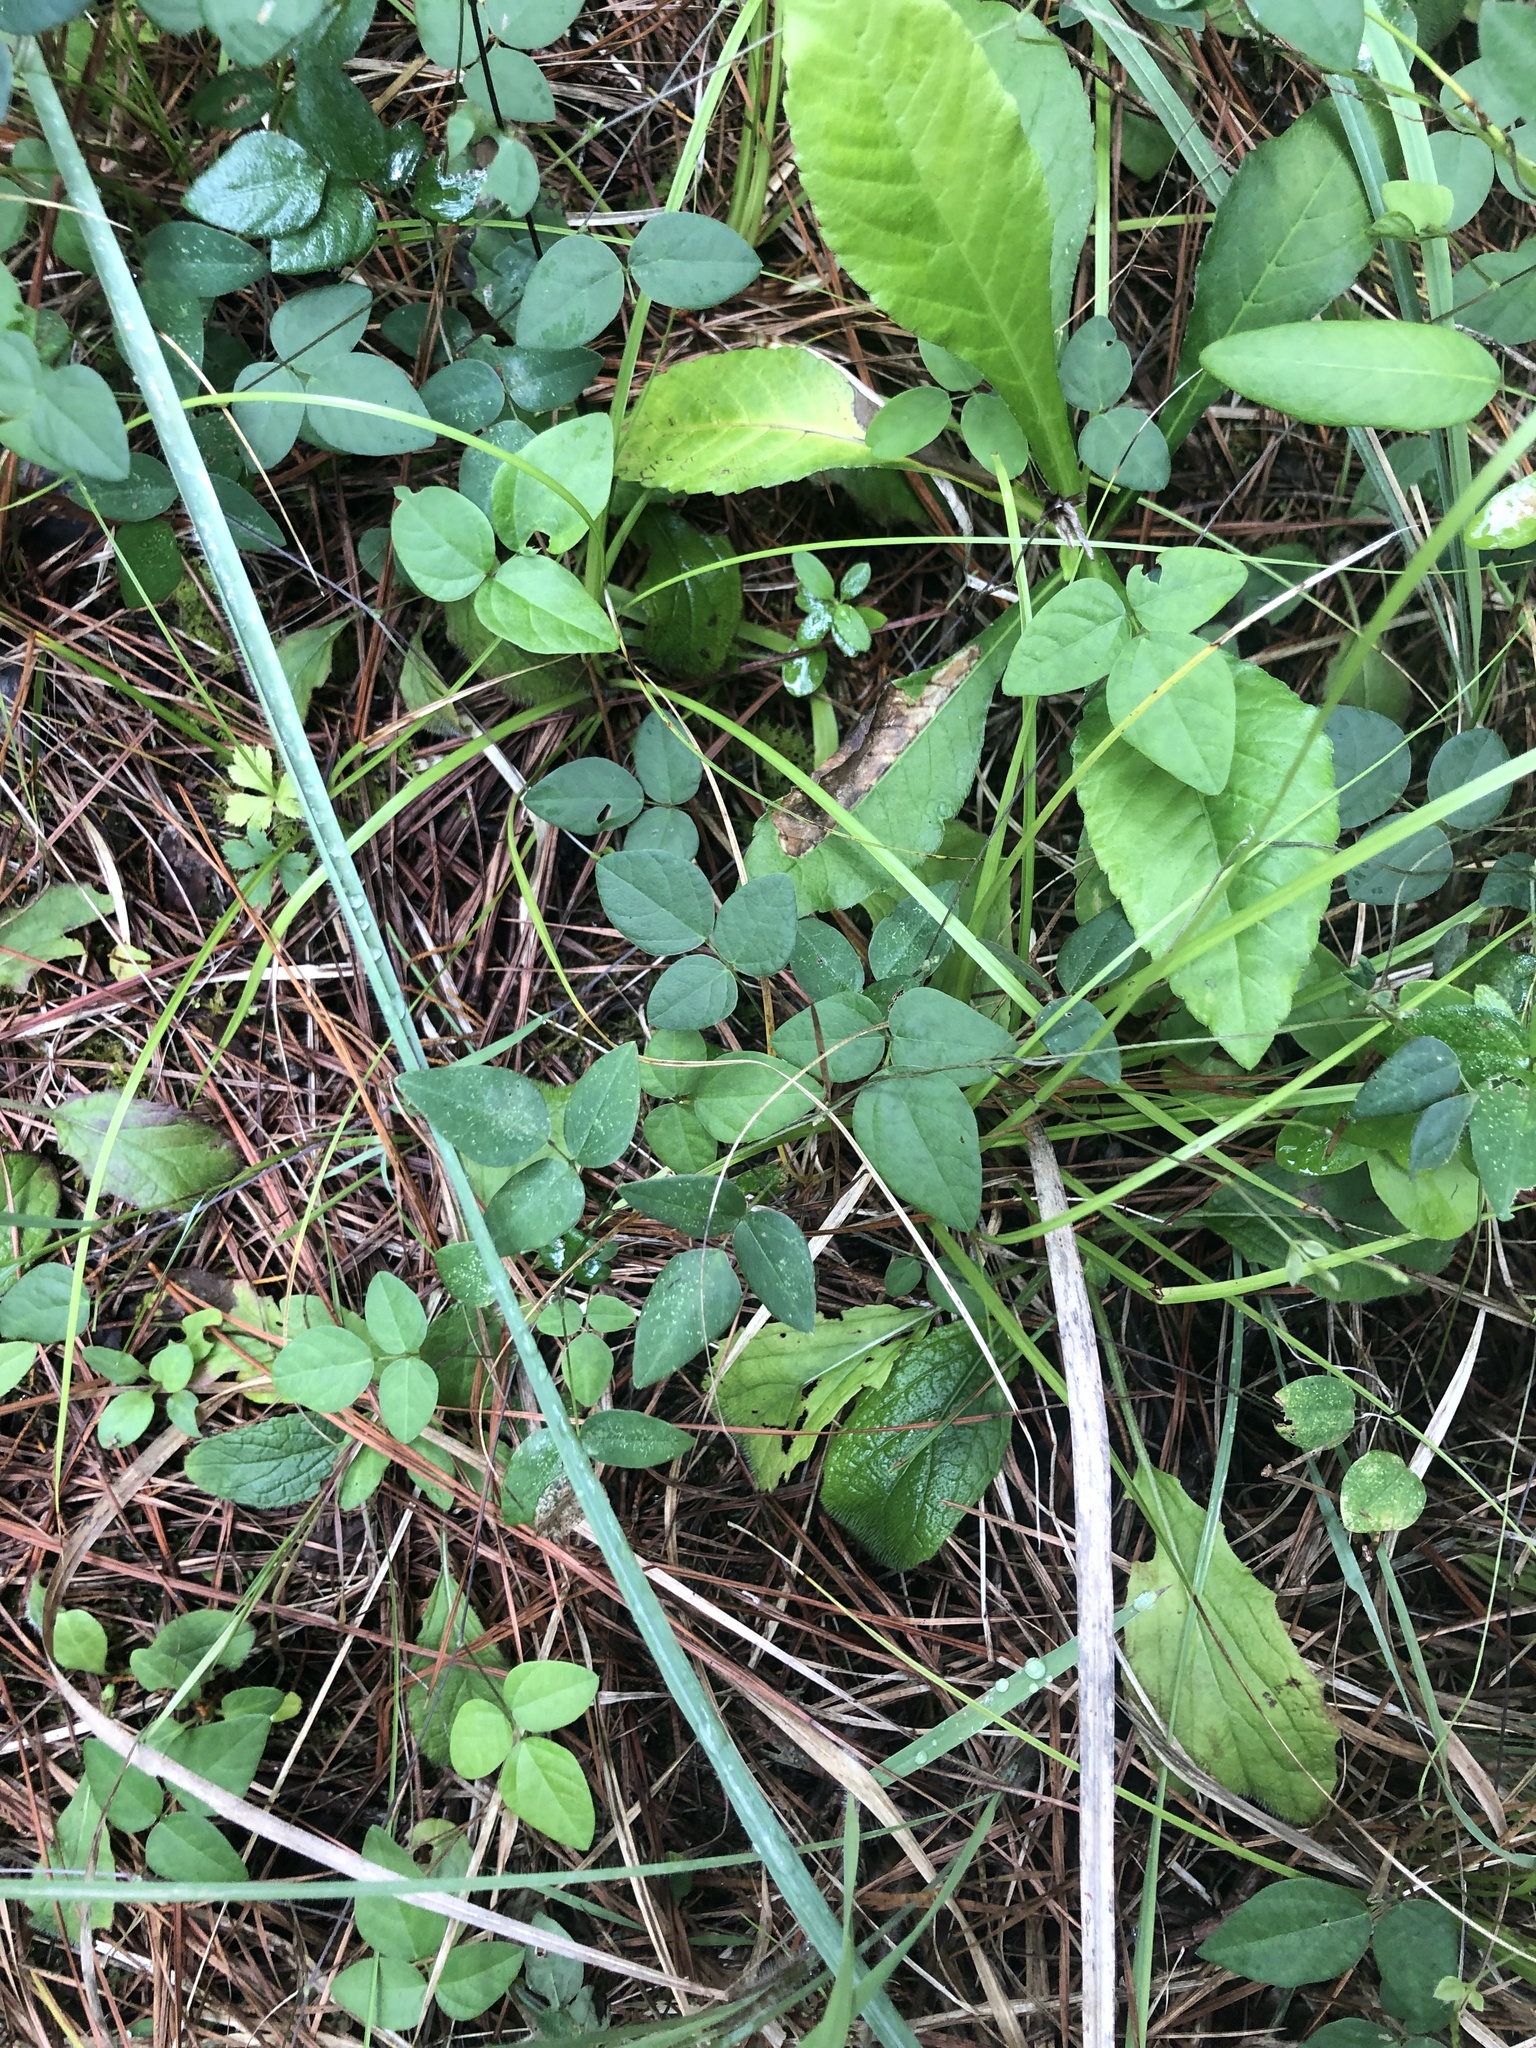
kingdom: Plantae
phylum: Tracheophyta
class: Magnoliopsida
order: Fabales
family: Fabaceae
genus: Amphicarpaea
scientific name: Amphicarpaea bracteata
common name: American hog peanut
